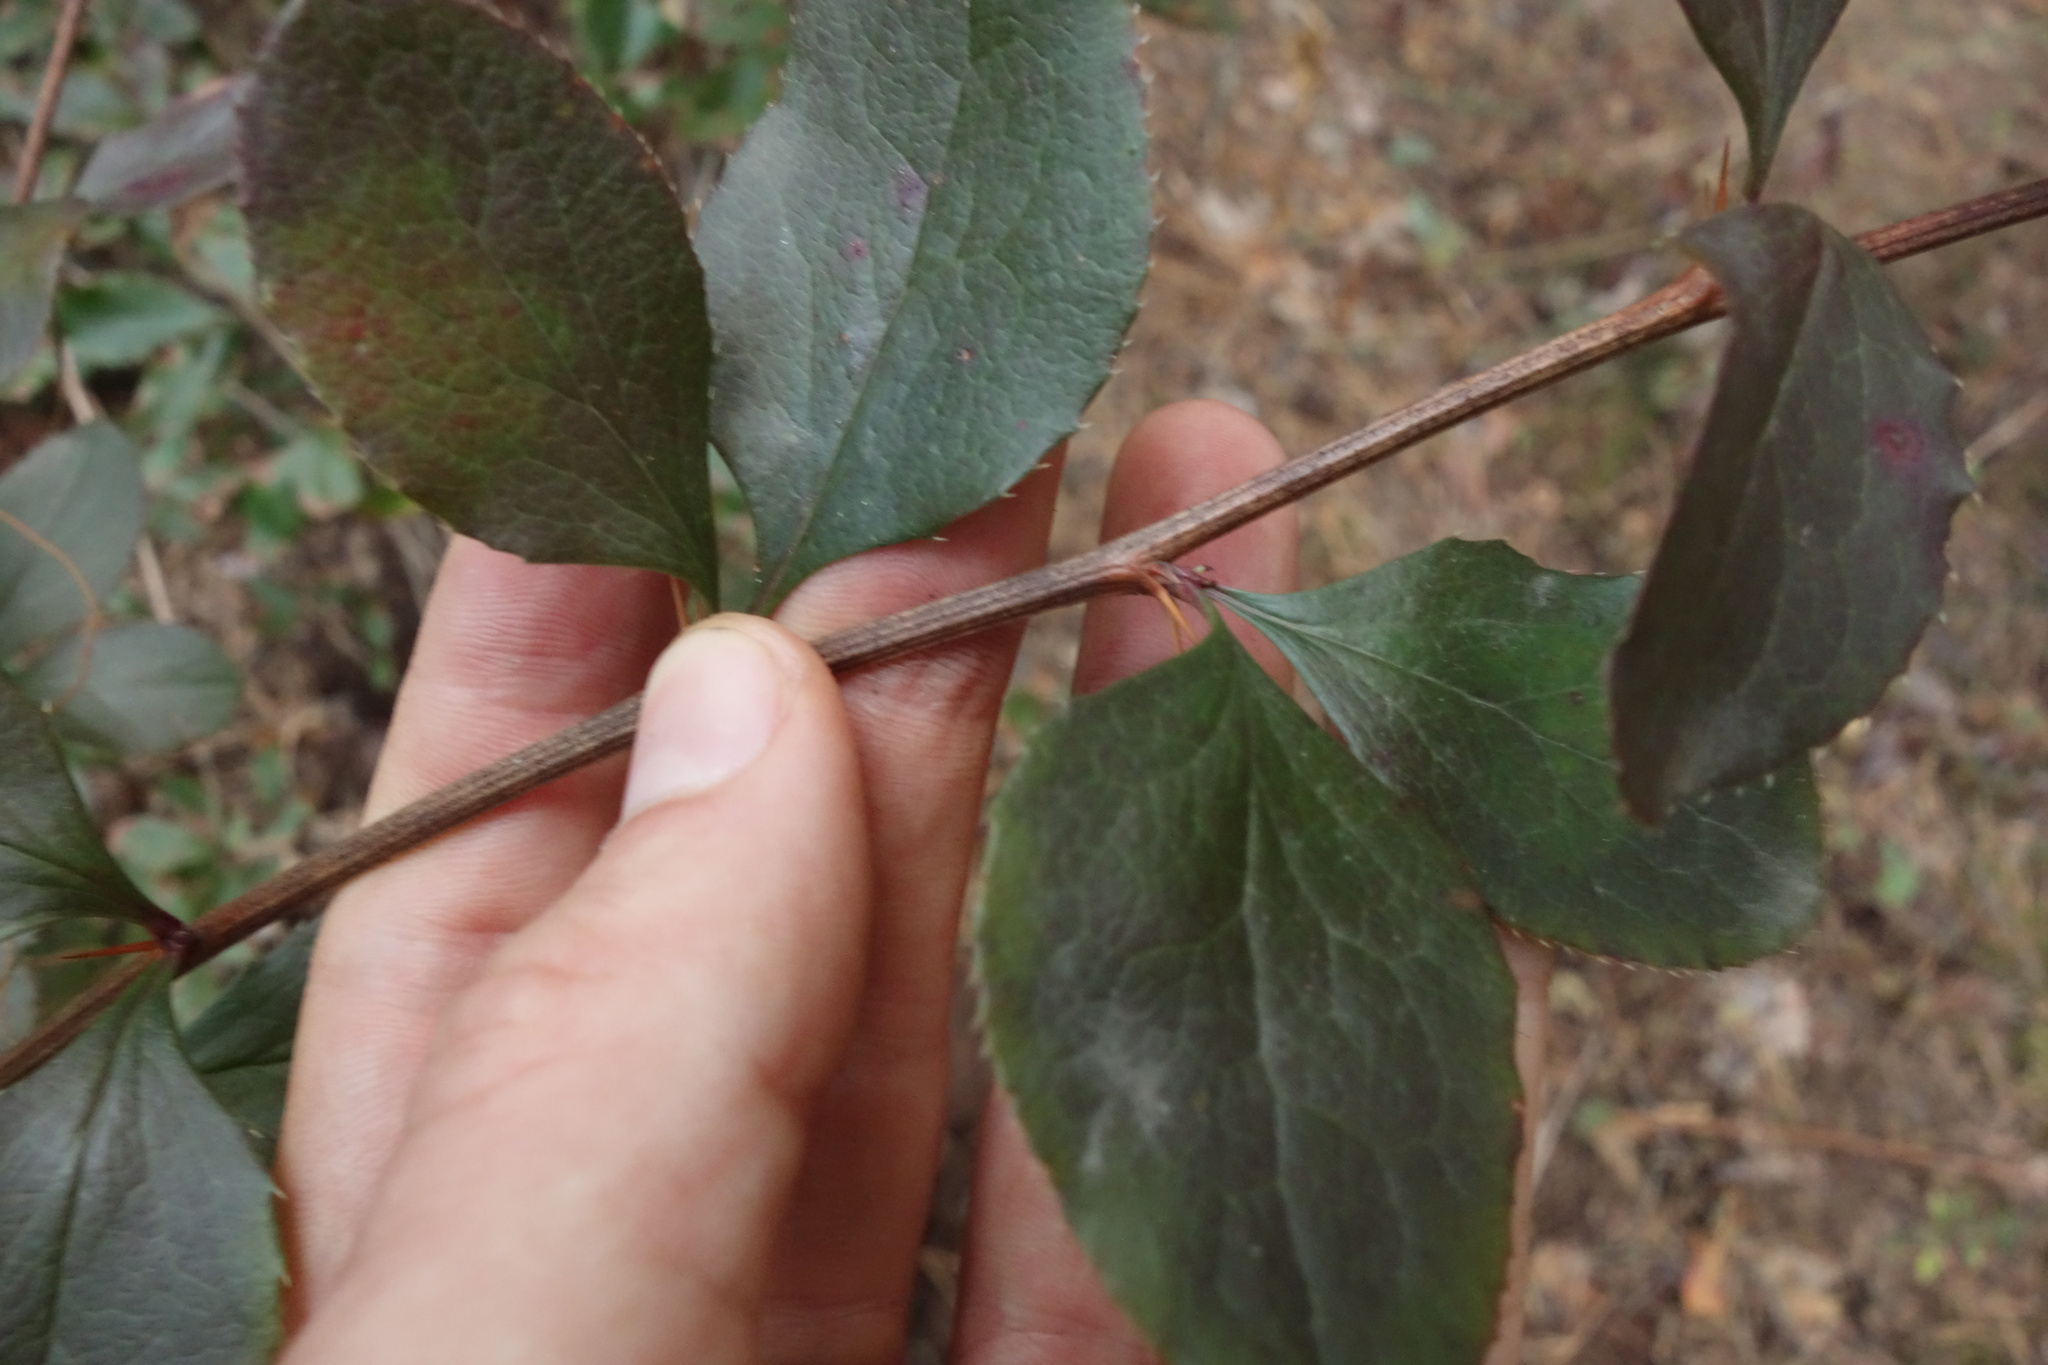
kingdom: Plantae
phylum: Tracheophyta
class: Magnoliopsida
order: Ranunculales
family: Berberidaceae
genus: Berberis
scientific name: Berberis vulgaris
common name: Barberry
